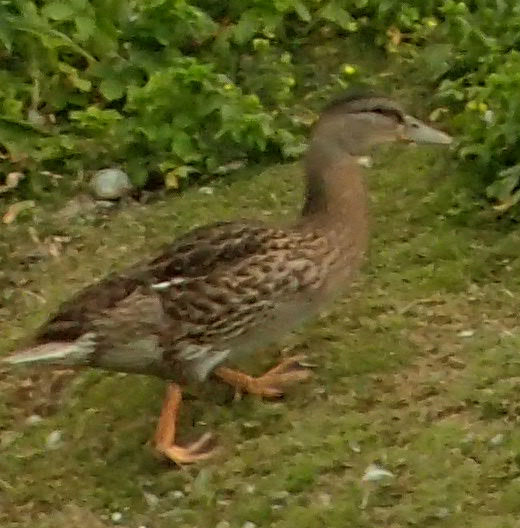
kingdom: Animalia
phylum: Chordata
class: Aves
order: Anseriformes
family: Anatidae
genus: Anas
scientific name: Anas platyrhynchos
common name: Mallard
